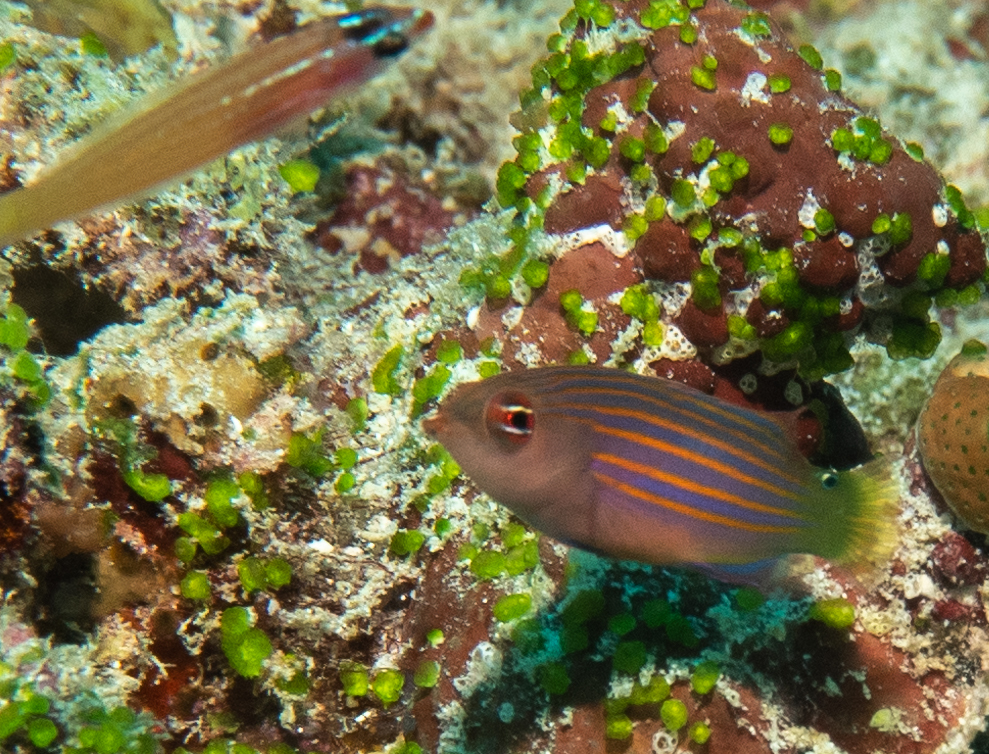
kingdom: Animalia
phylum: Chordata
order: Perciformes
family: Labridae
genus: Pseudocheilinus
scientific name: Pseudocheilinus hexataenia
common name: Sixline wrasse
